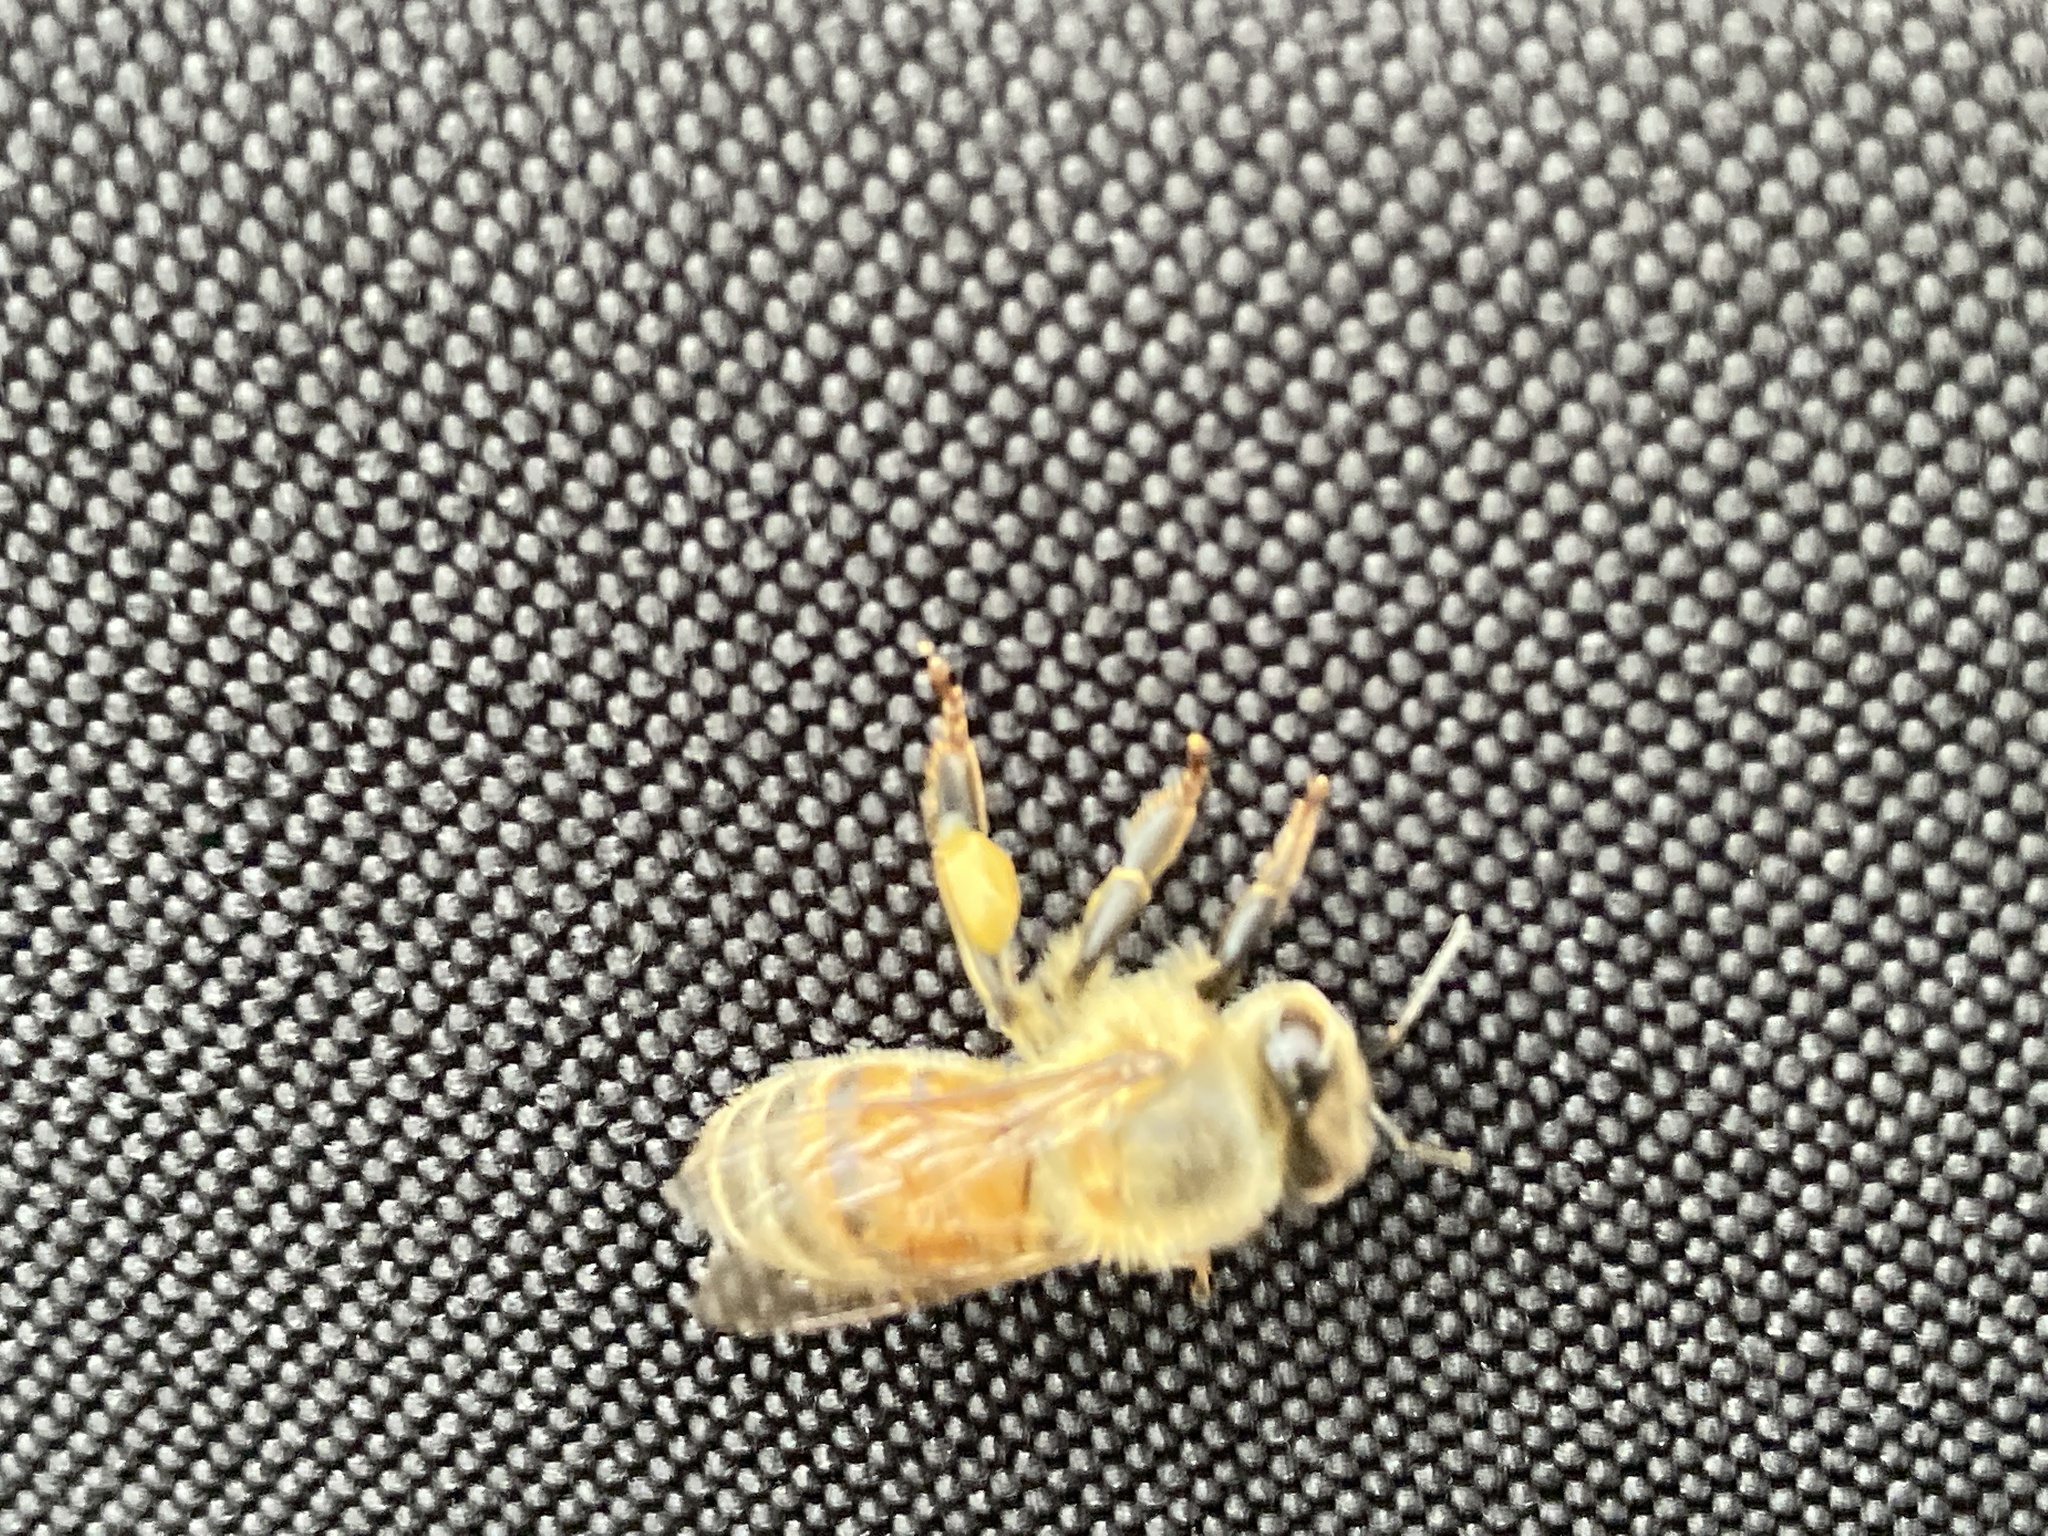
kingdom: Animalia
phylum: Arthropoda
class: Insecta
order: Hymenoptera
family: Apidae
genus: Apis
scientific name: Apis mellifera
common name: Honey bee
